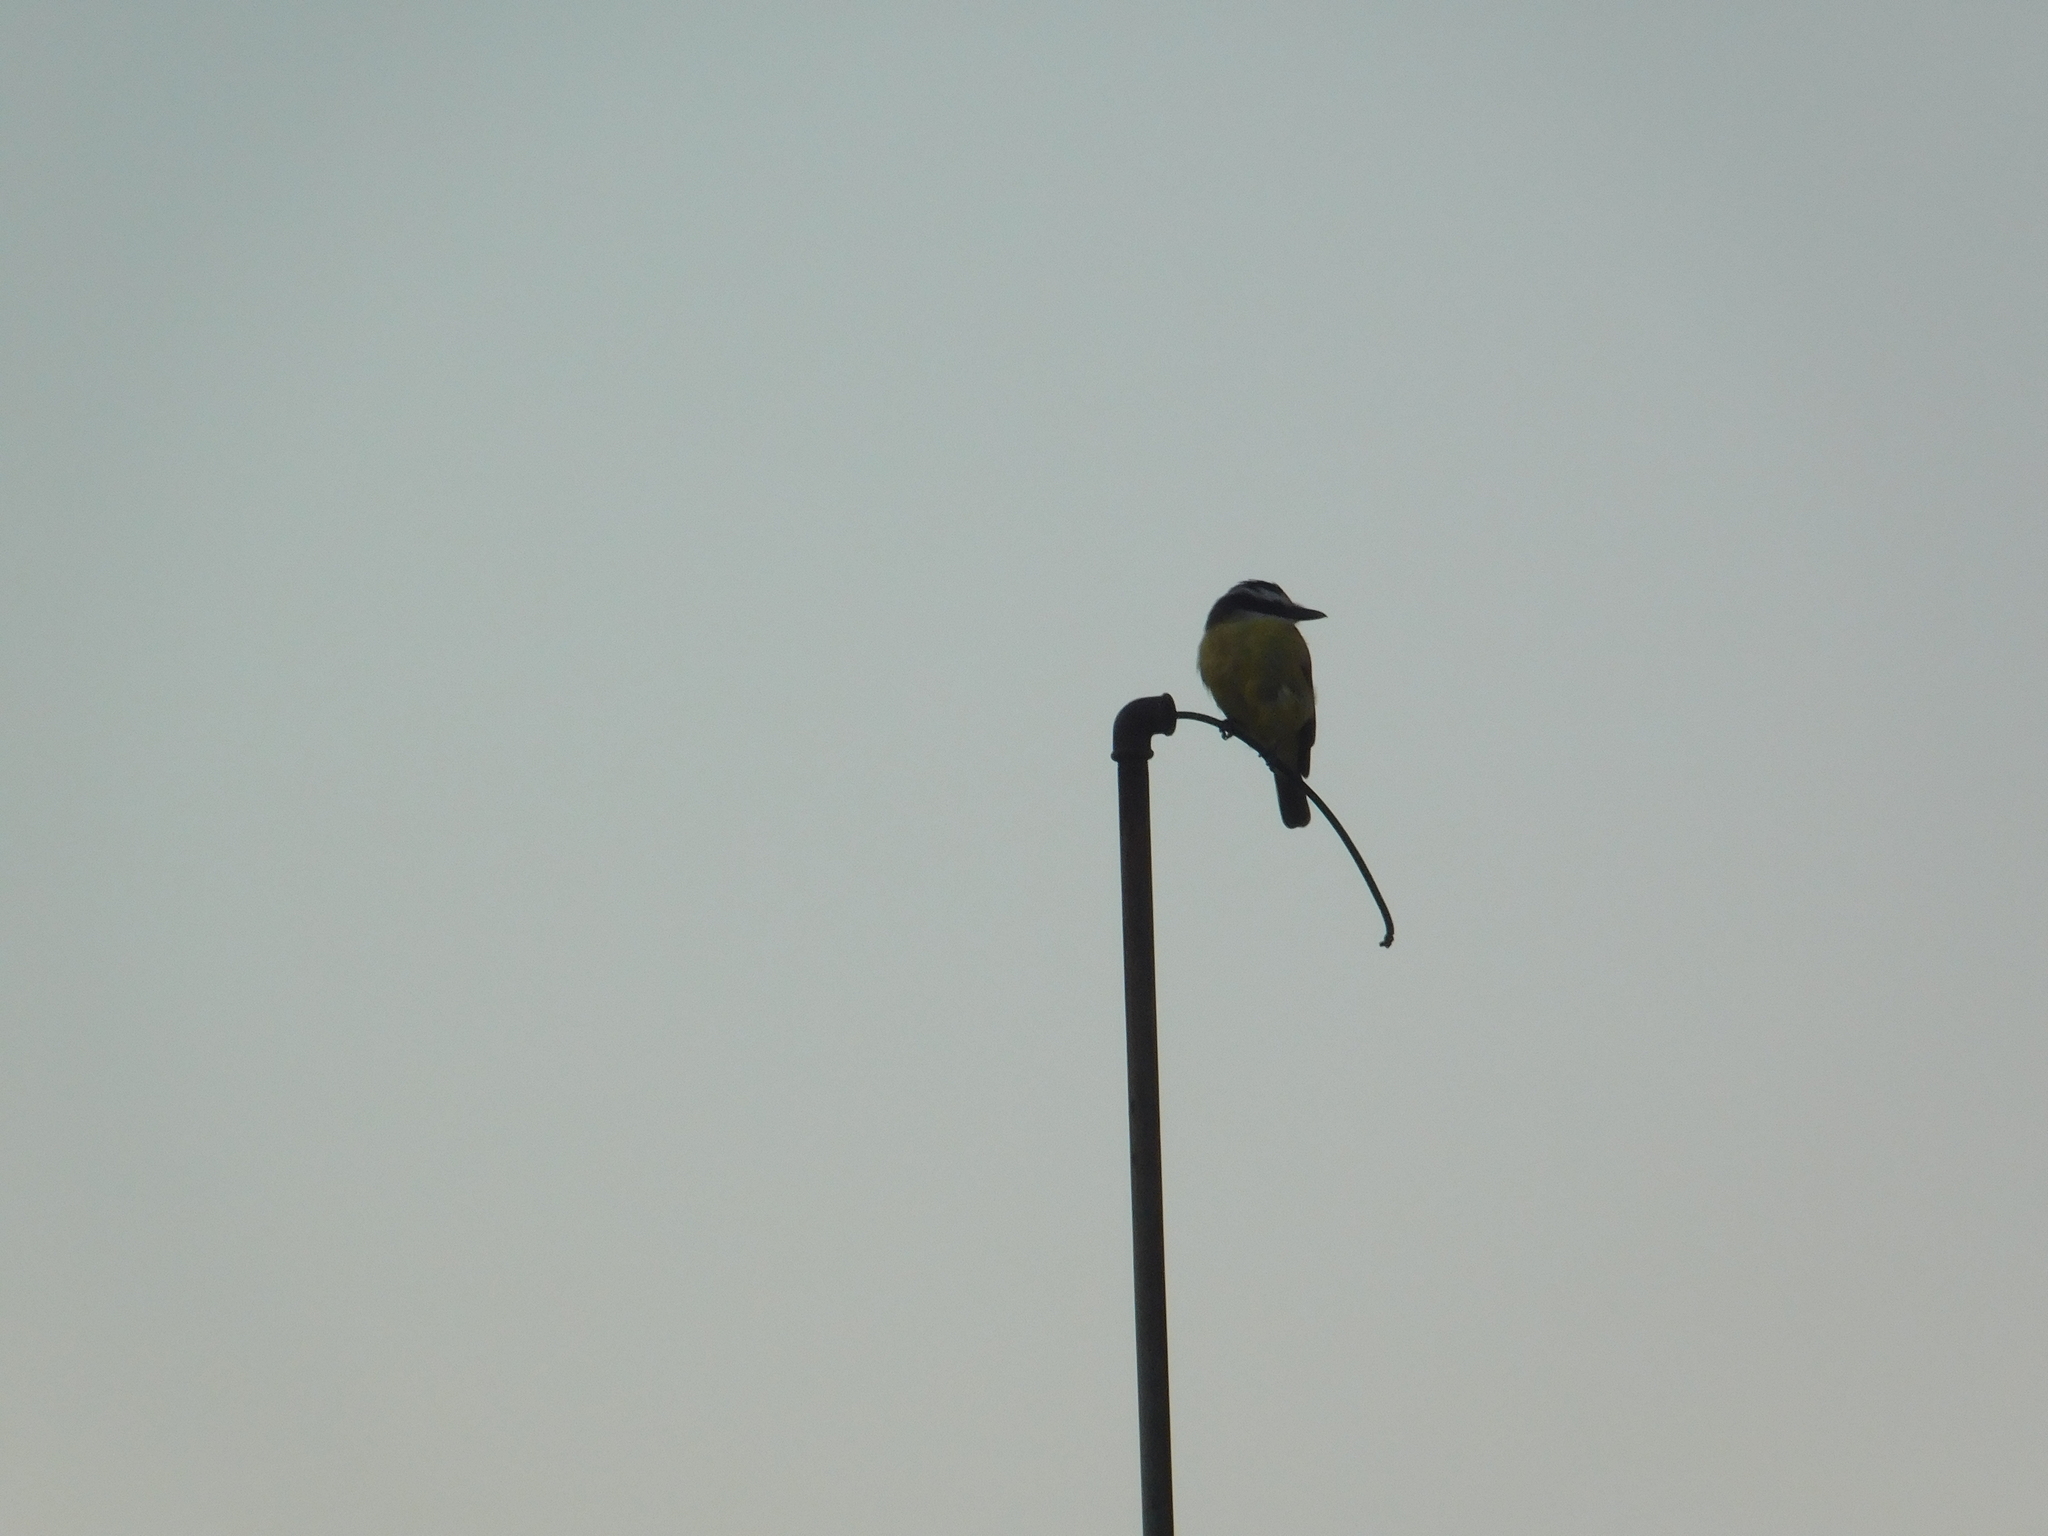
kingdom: Animalia
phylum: Chordata
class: Aves
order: Passeriformes
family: Tyrannidae
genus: Pitangus
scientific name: Pitangus sulphuratus
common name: Great kiskadee
